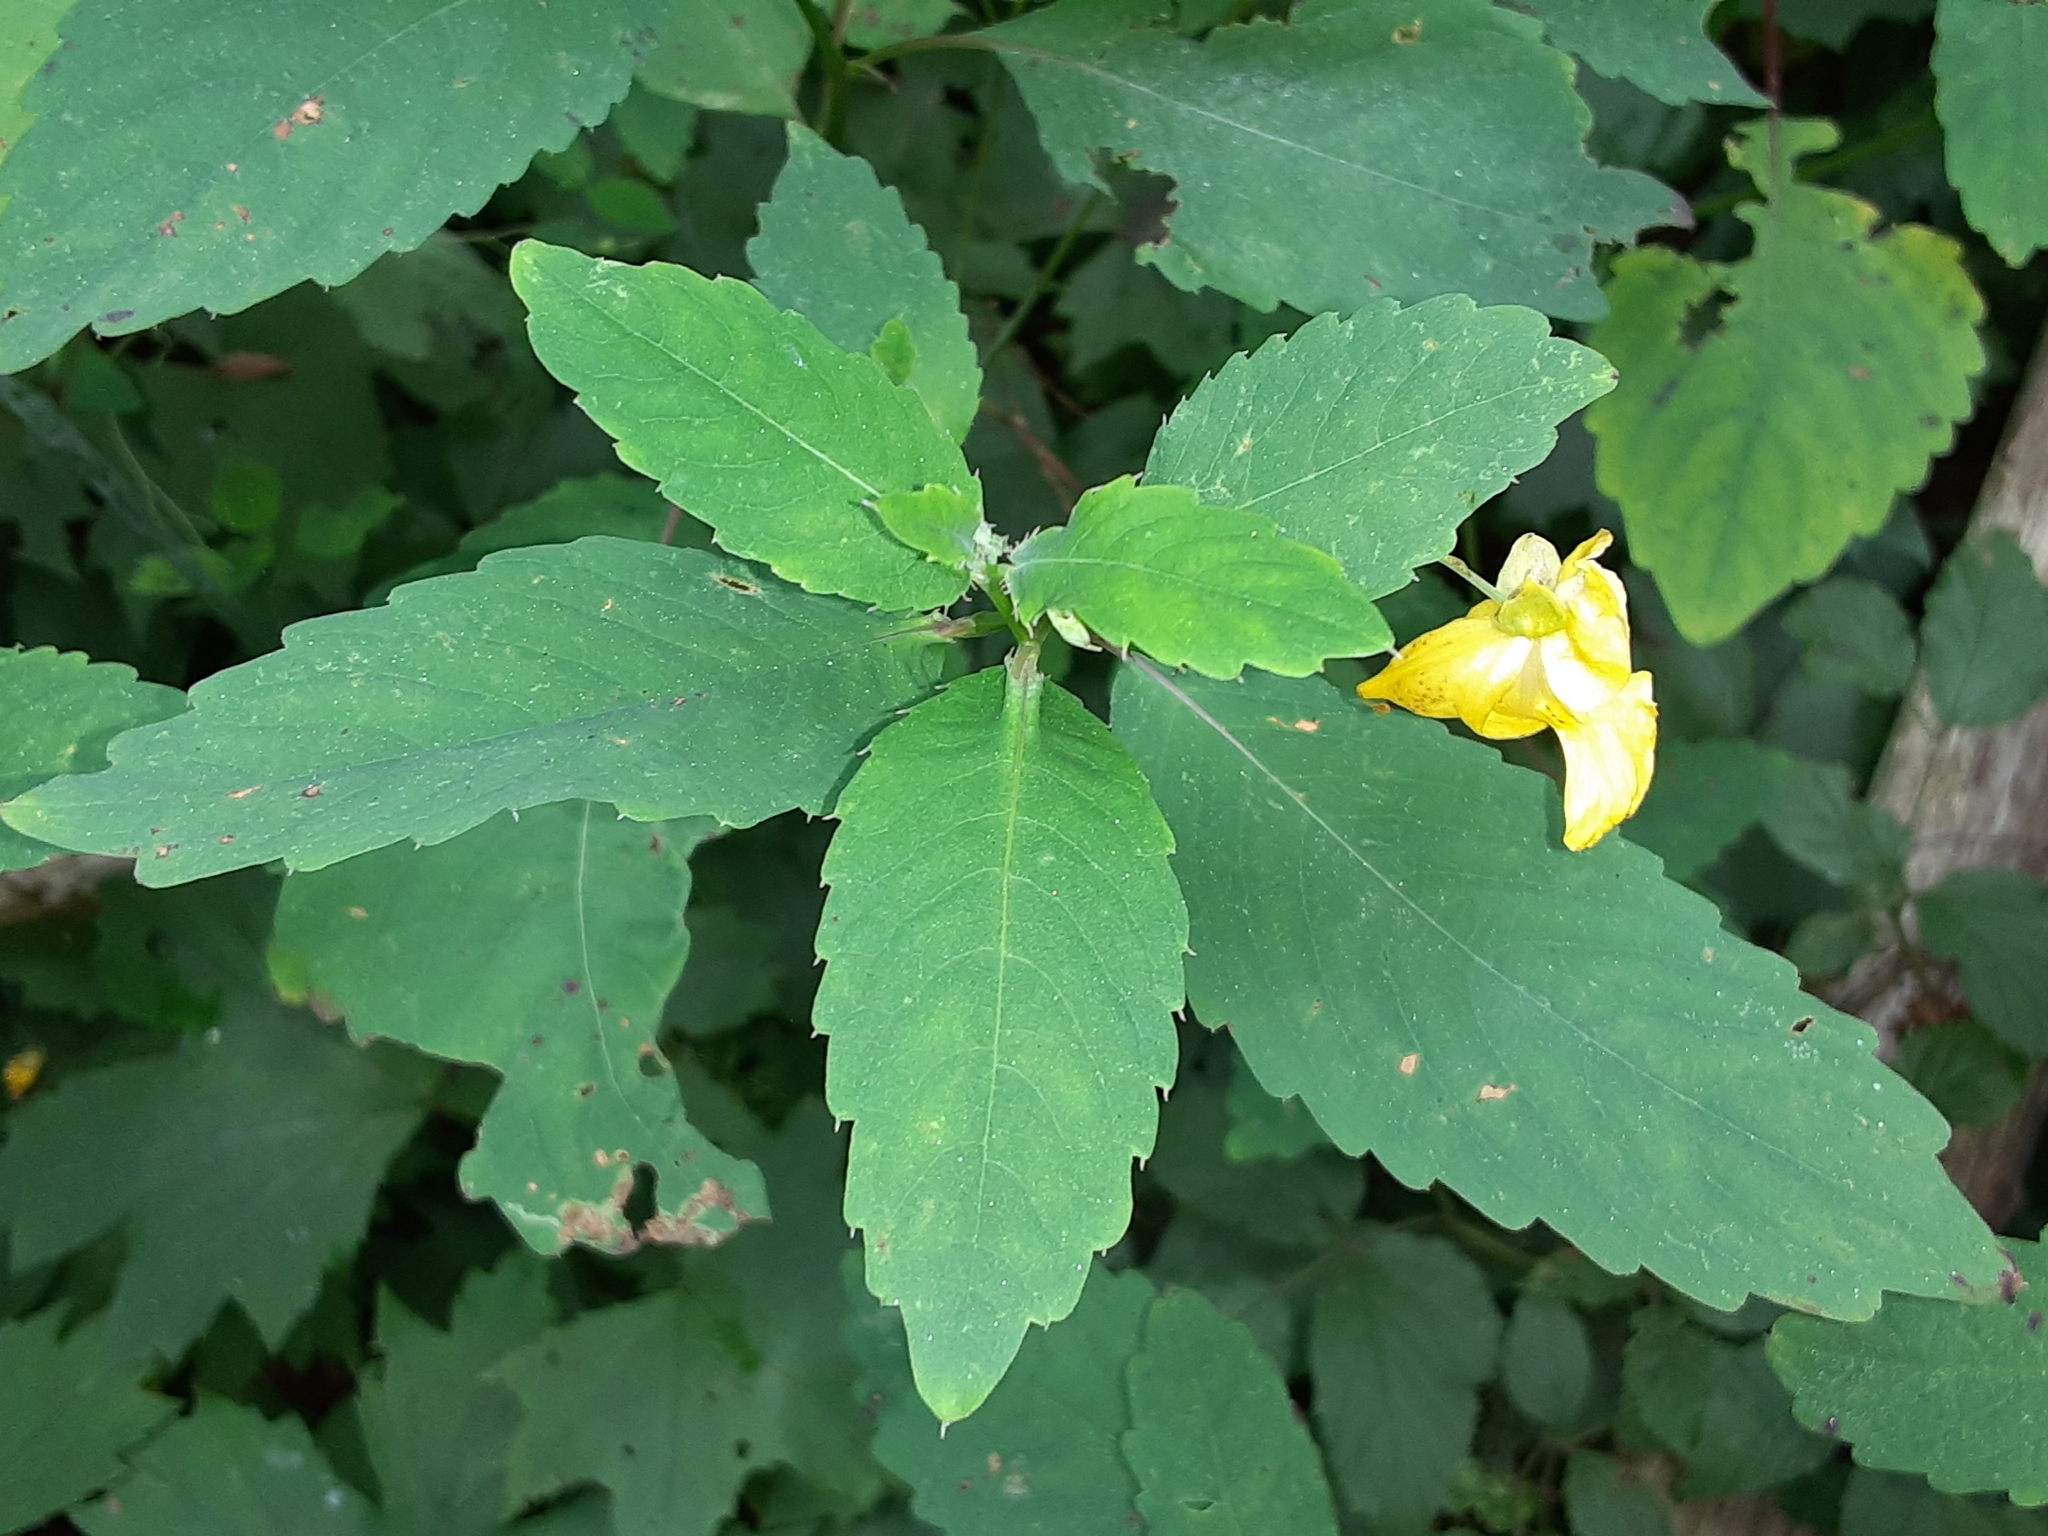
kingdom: Plantae
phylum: Tracheophyta
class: Magnoliopsida
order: Ericales
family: Balsaminaceae
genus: Impatiens
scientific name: Impatiens pallida
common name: Pale snapweed
